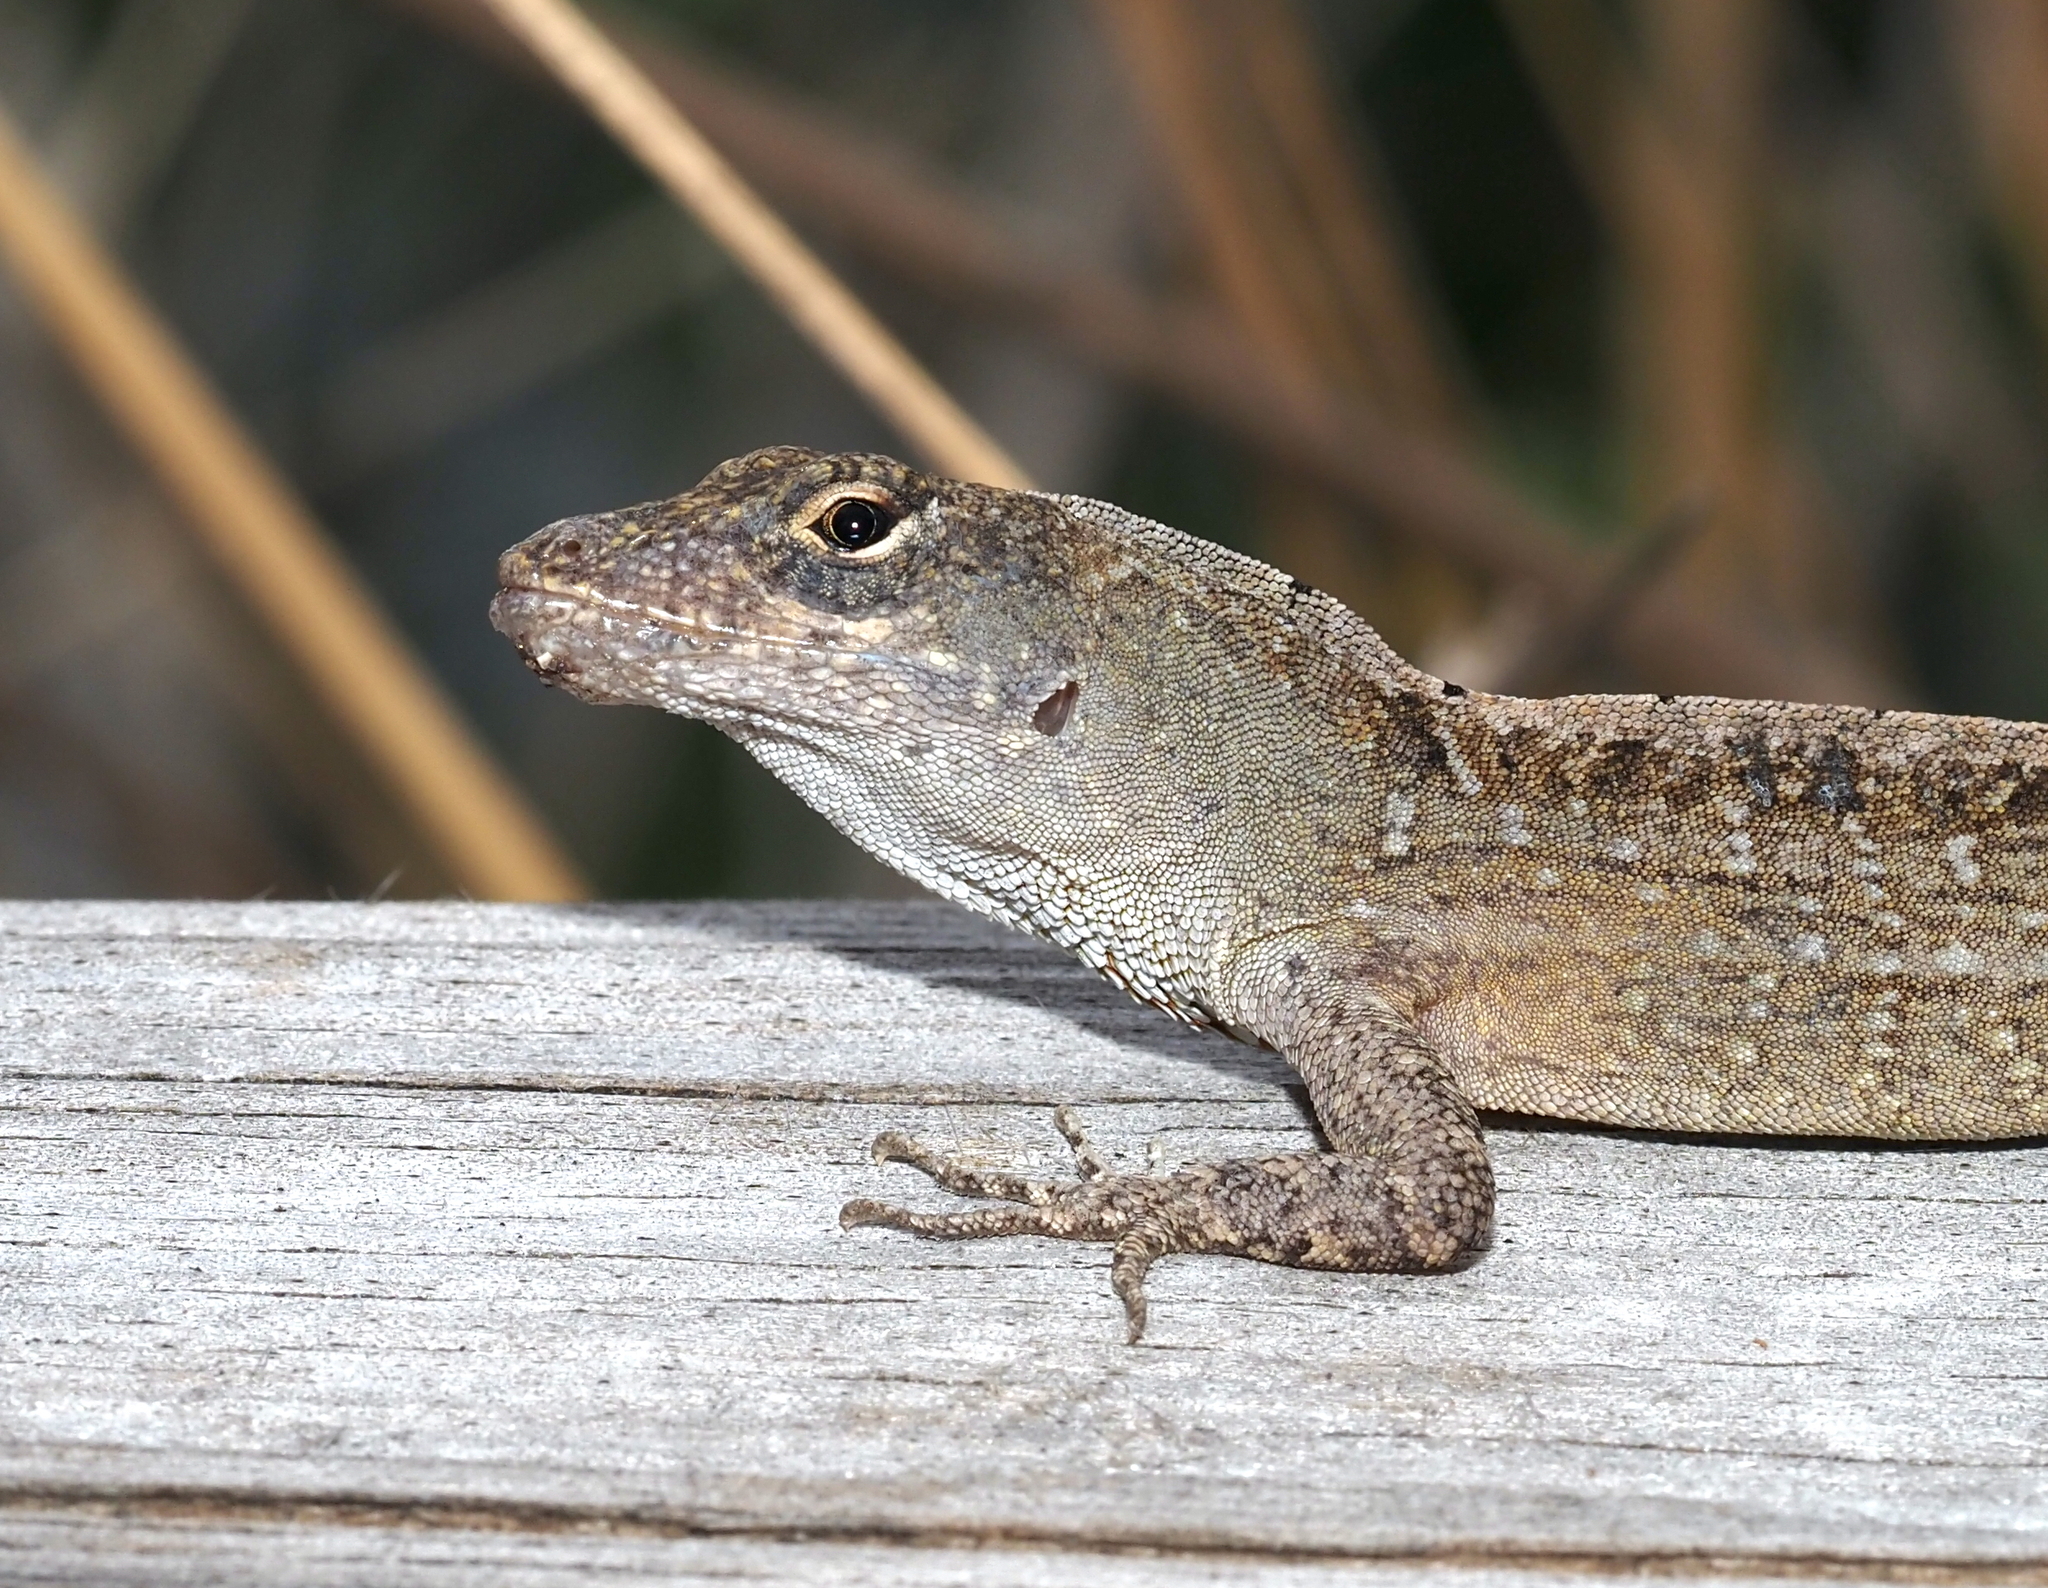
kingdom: Animalia
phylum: Chordata
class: Squamata
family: Dactyloidae
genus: Anolis
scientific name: Anolis sagrei
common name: Brown anole
